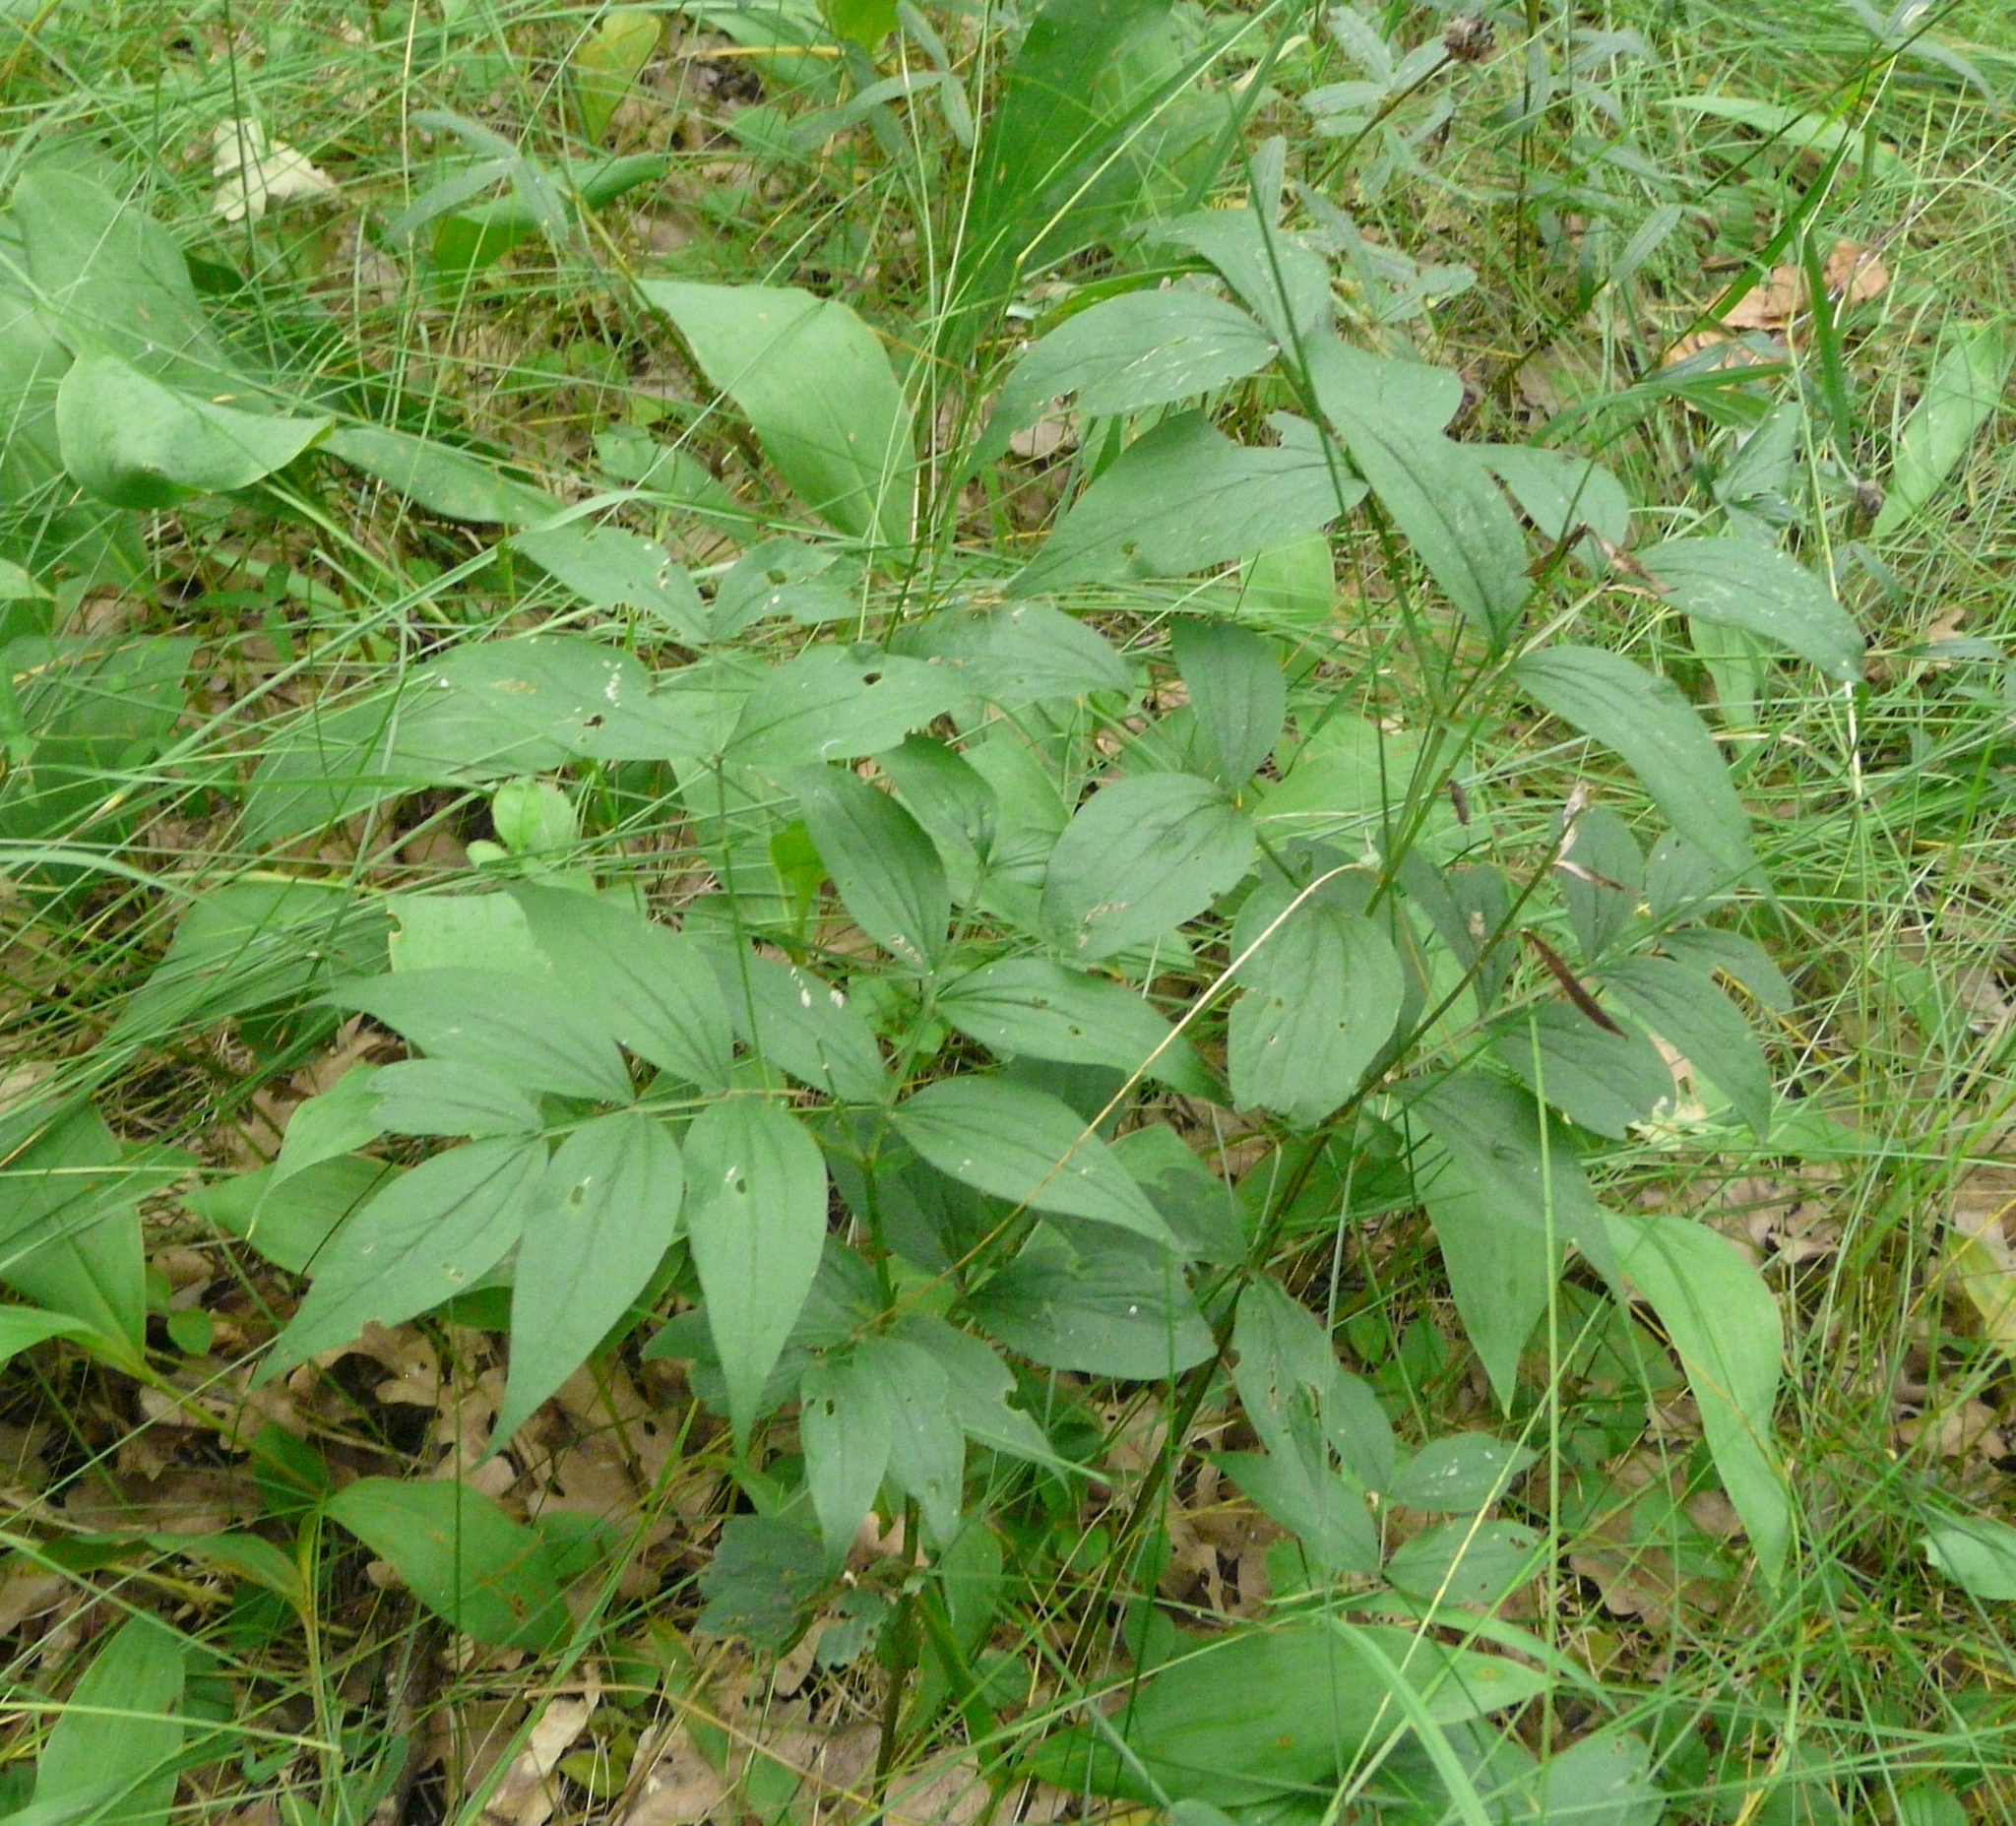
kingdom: Plantae
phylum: Tracheophyta
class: Magnoliopsida
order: Fabales
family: Fabaceae
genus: Lathyrus
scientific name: Lathyrus vernus
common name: Spring pea
